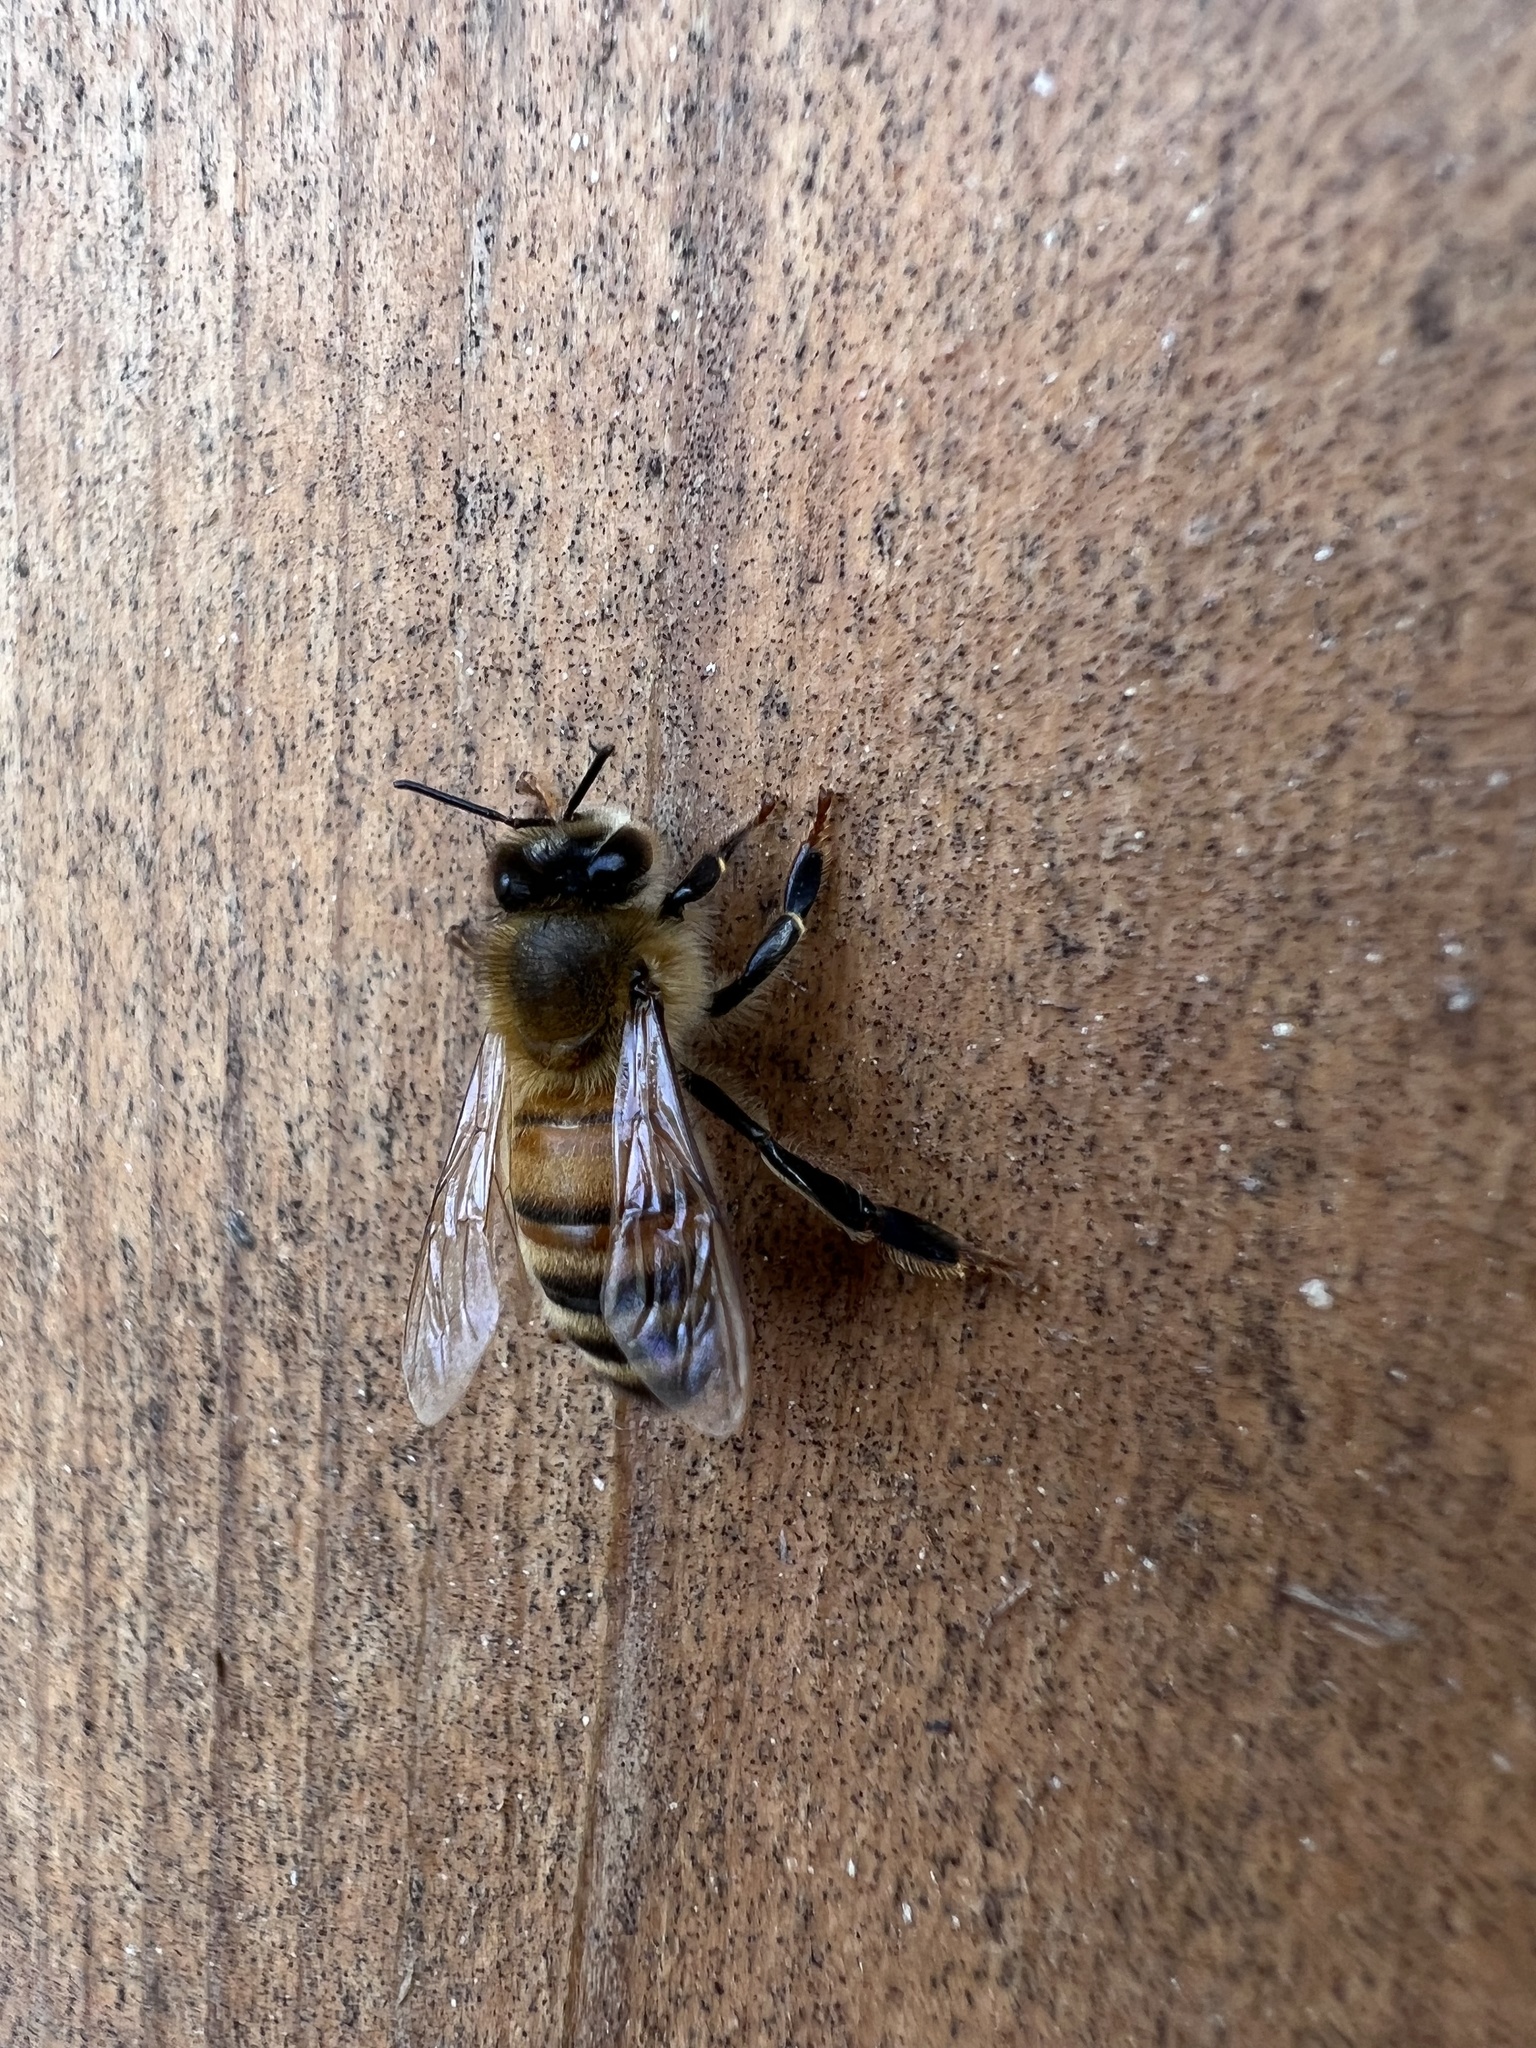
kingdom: Animalia
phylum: Arthropoda
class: Insecta
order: Hymenoptera
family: Apidae
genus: Apis
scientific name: Apis mellifera
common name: Honey bee
